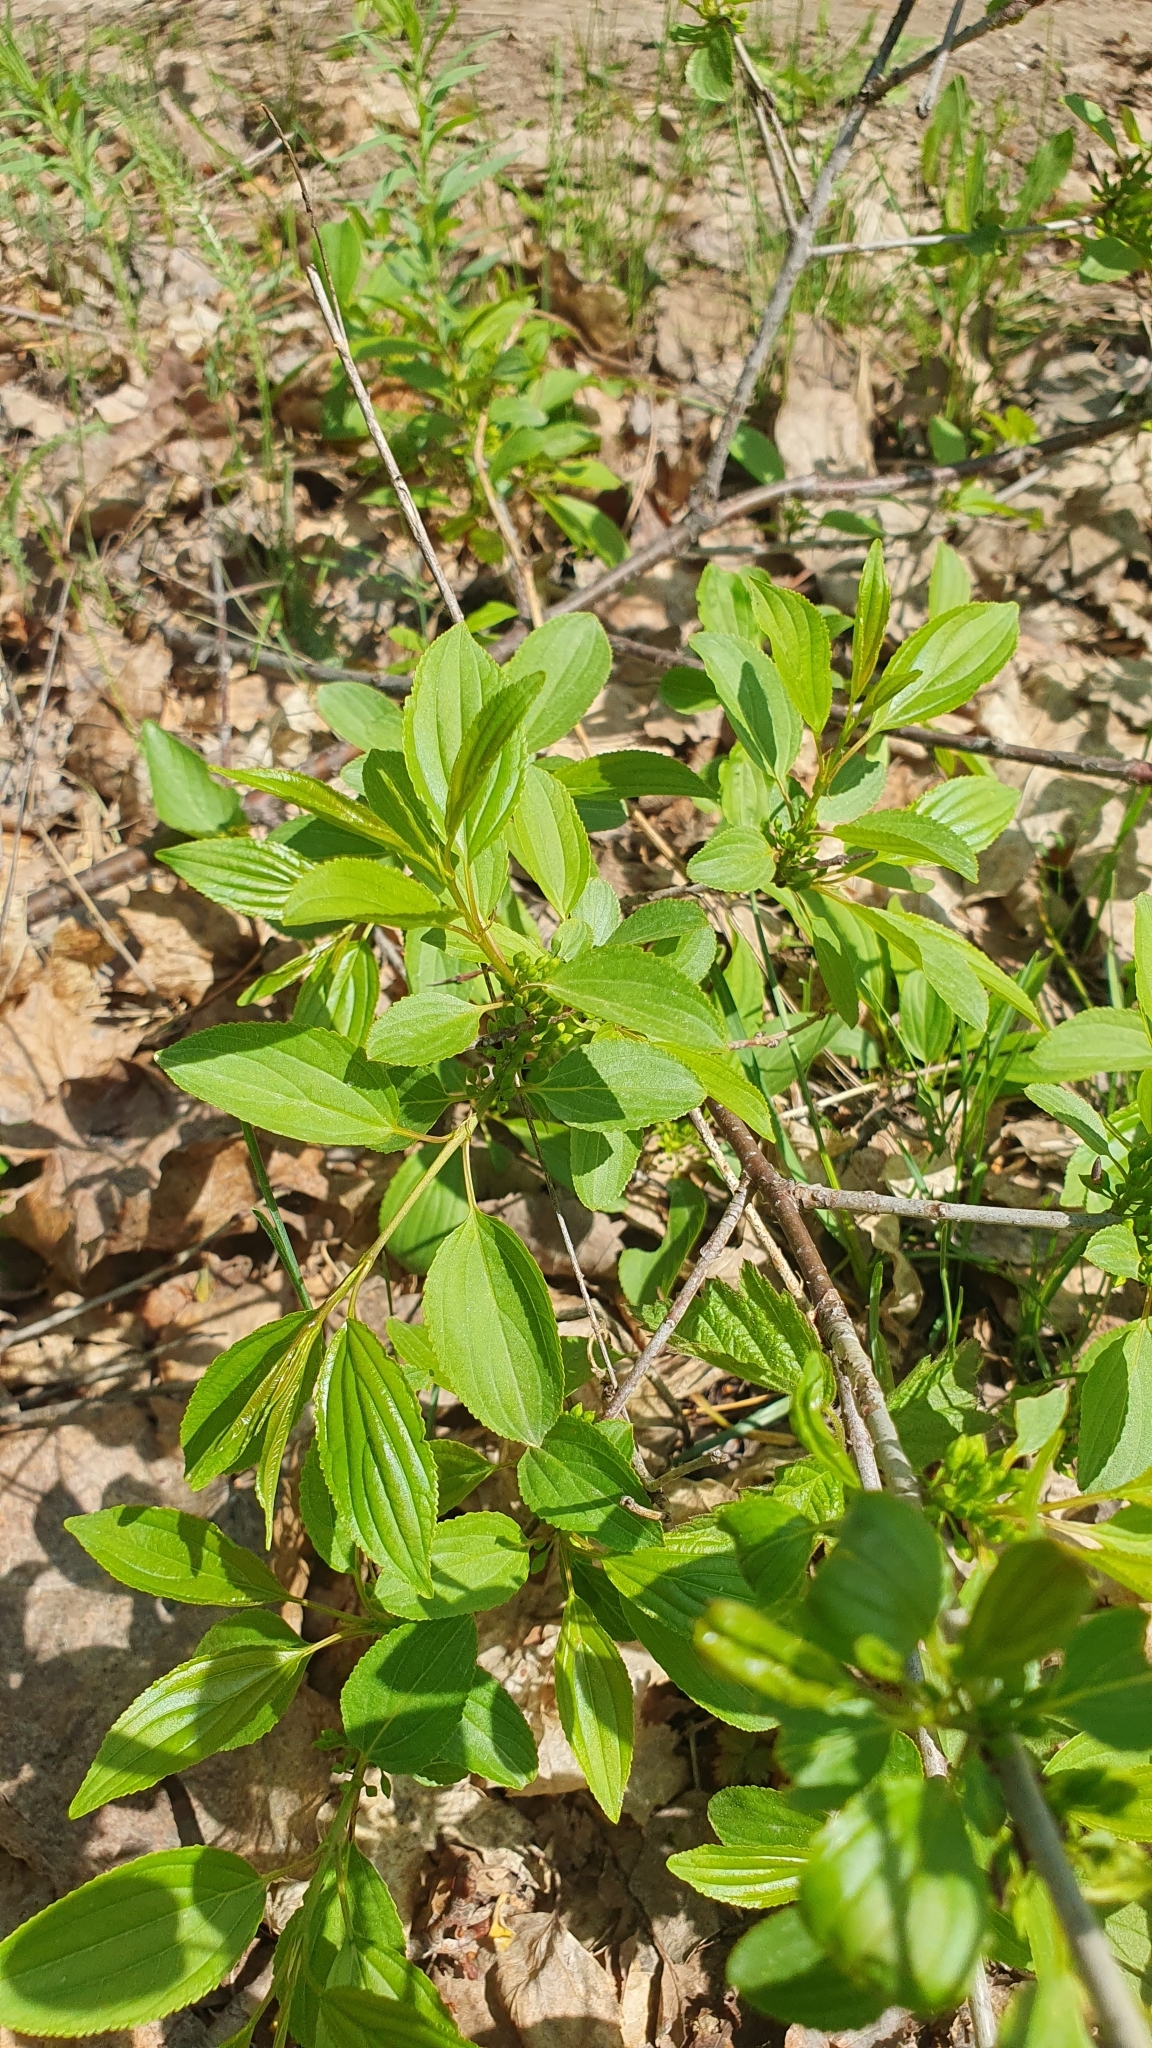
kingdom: Plantae
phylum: Tracheophyta
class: Magnoliopsida
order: Rosales
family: Rhamnaceae
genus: Rhamnus
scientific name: Rhamnus cathartica
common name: Common buckthorn
